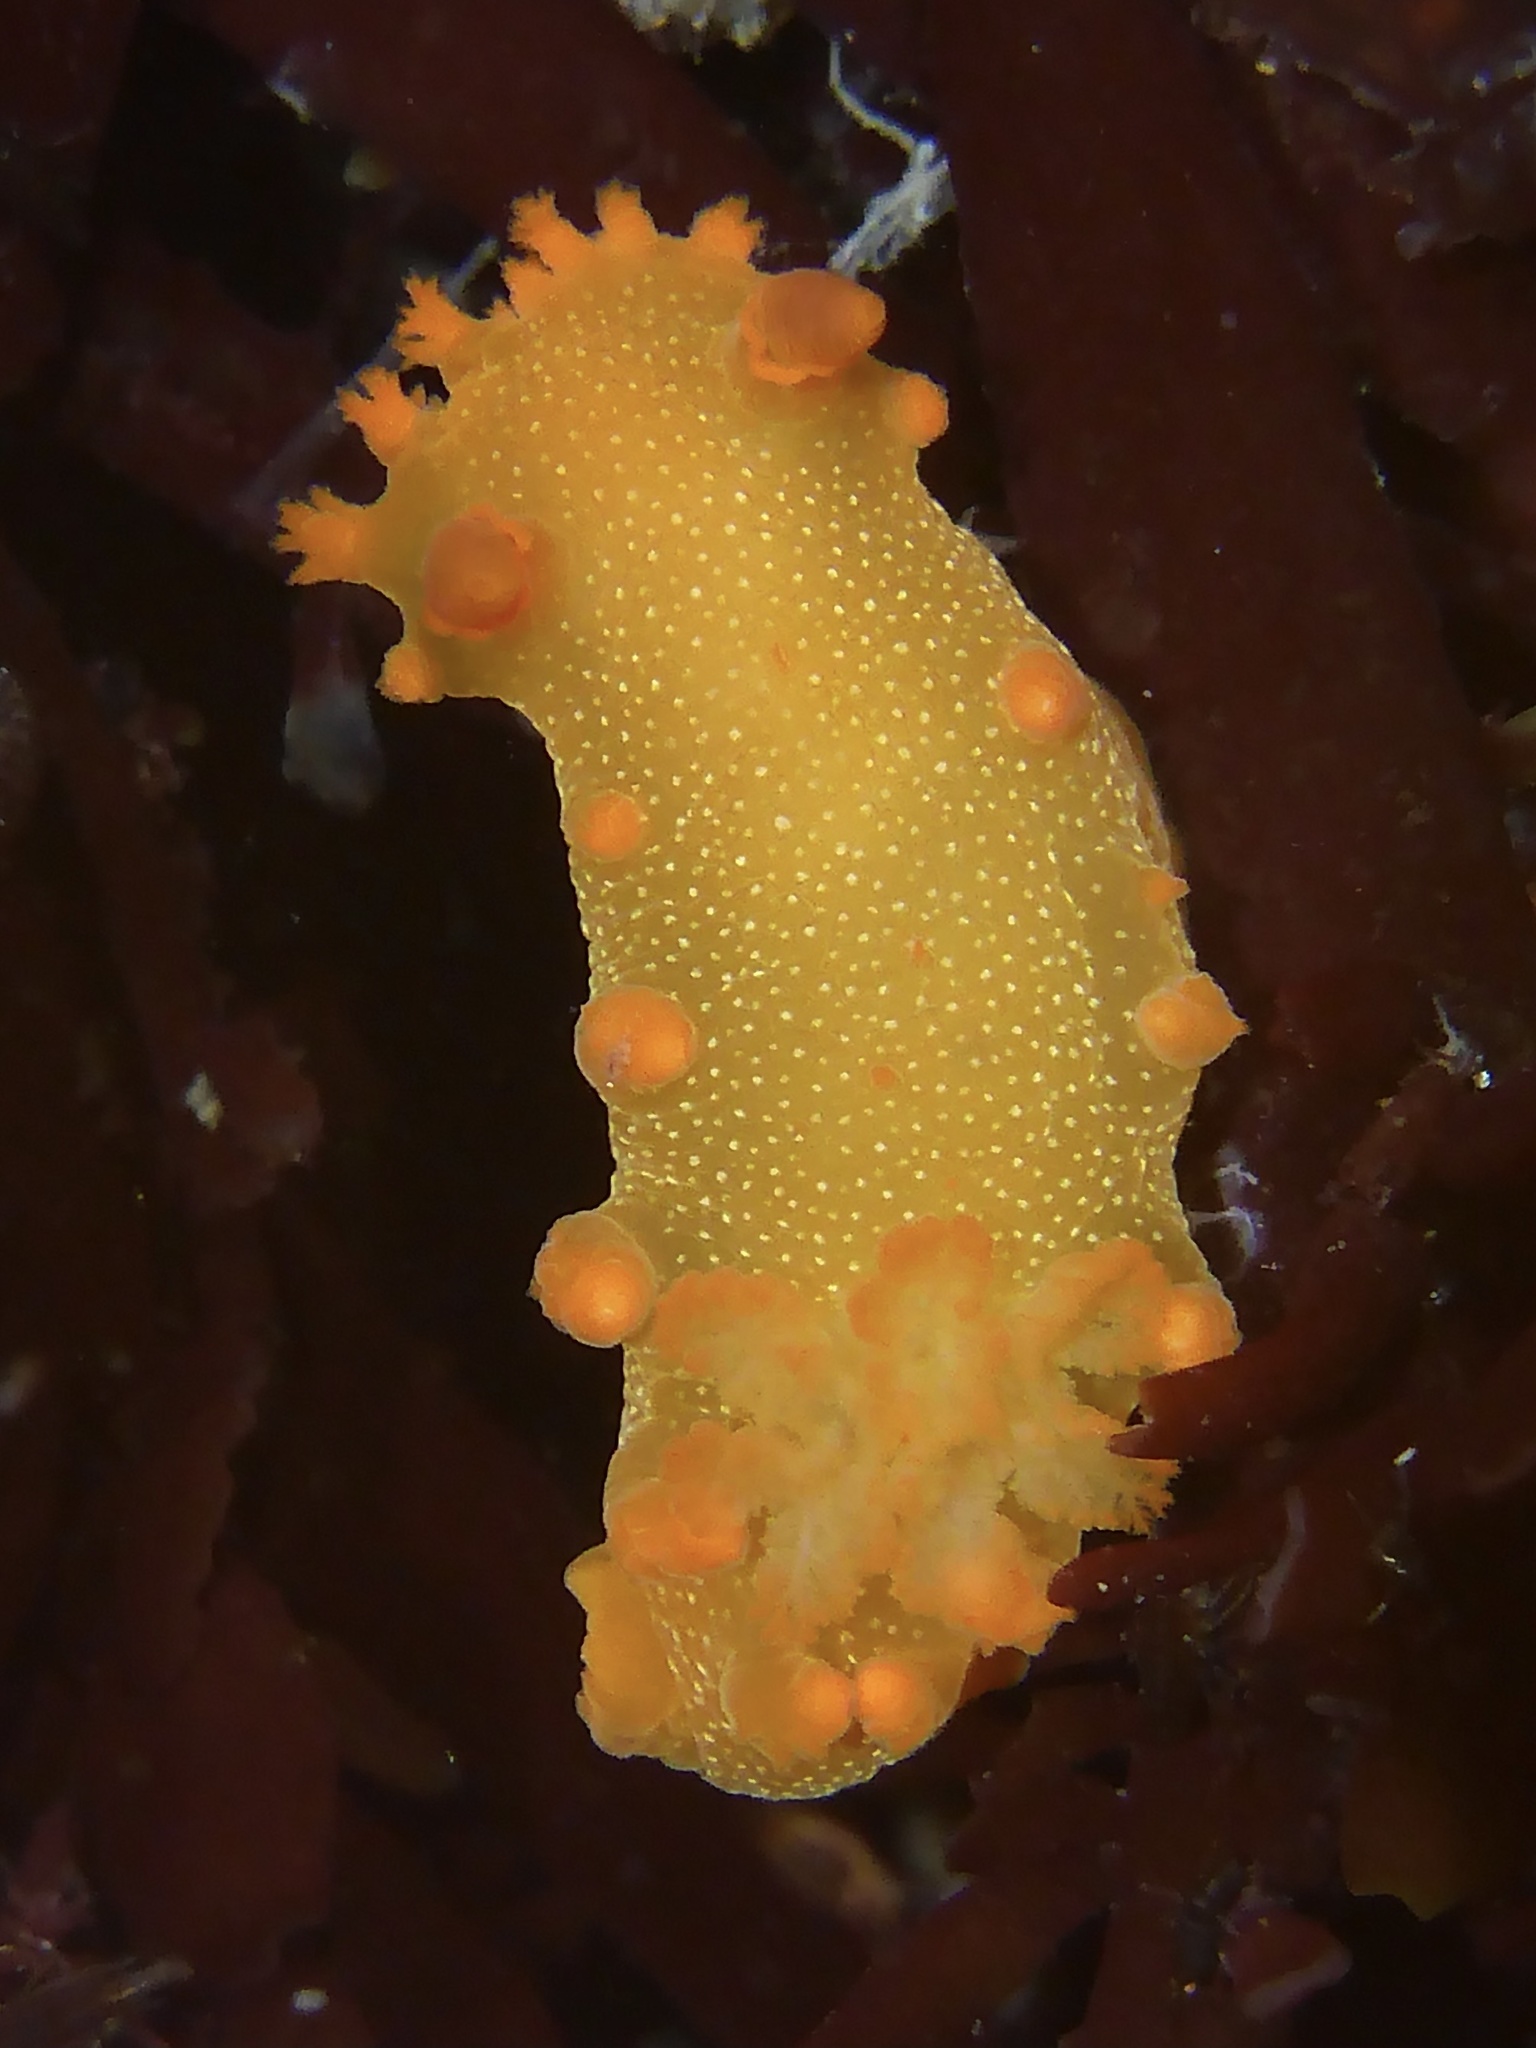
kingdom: Animalia
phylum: Mollusca
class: Gastropoda
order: Nudibranchia
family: Polyceridae
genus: Triopha
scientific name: Triopha maculata
